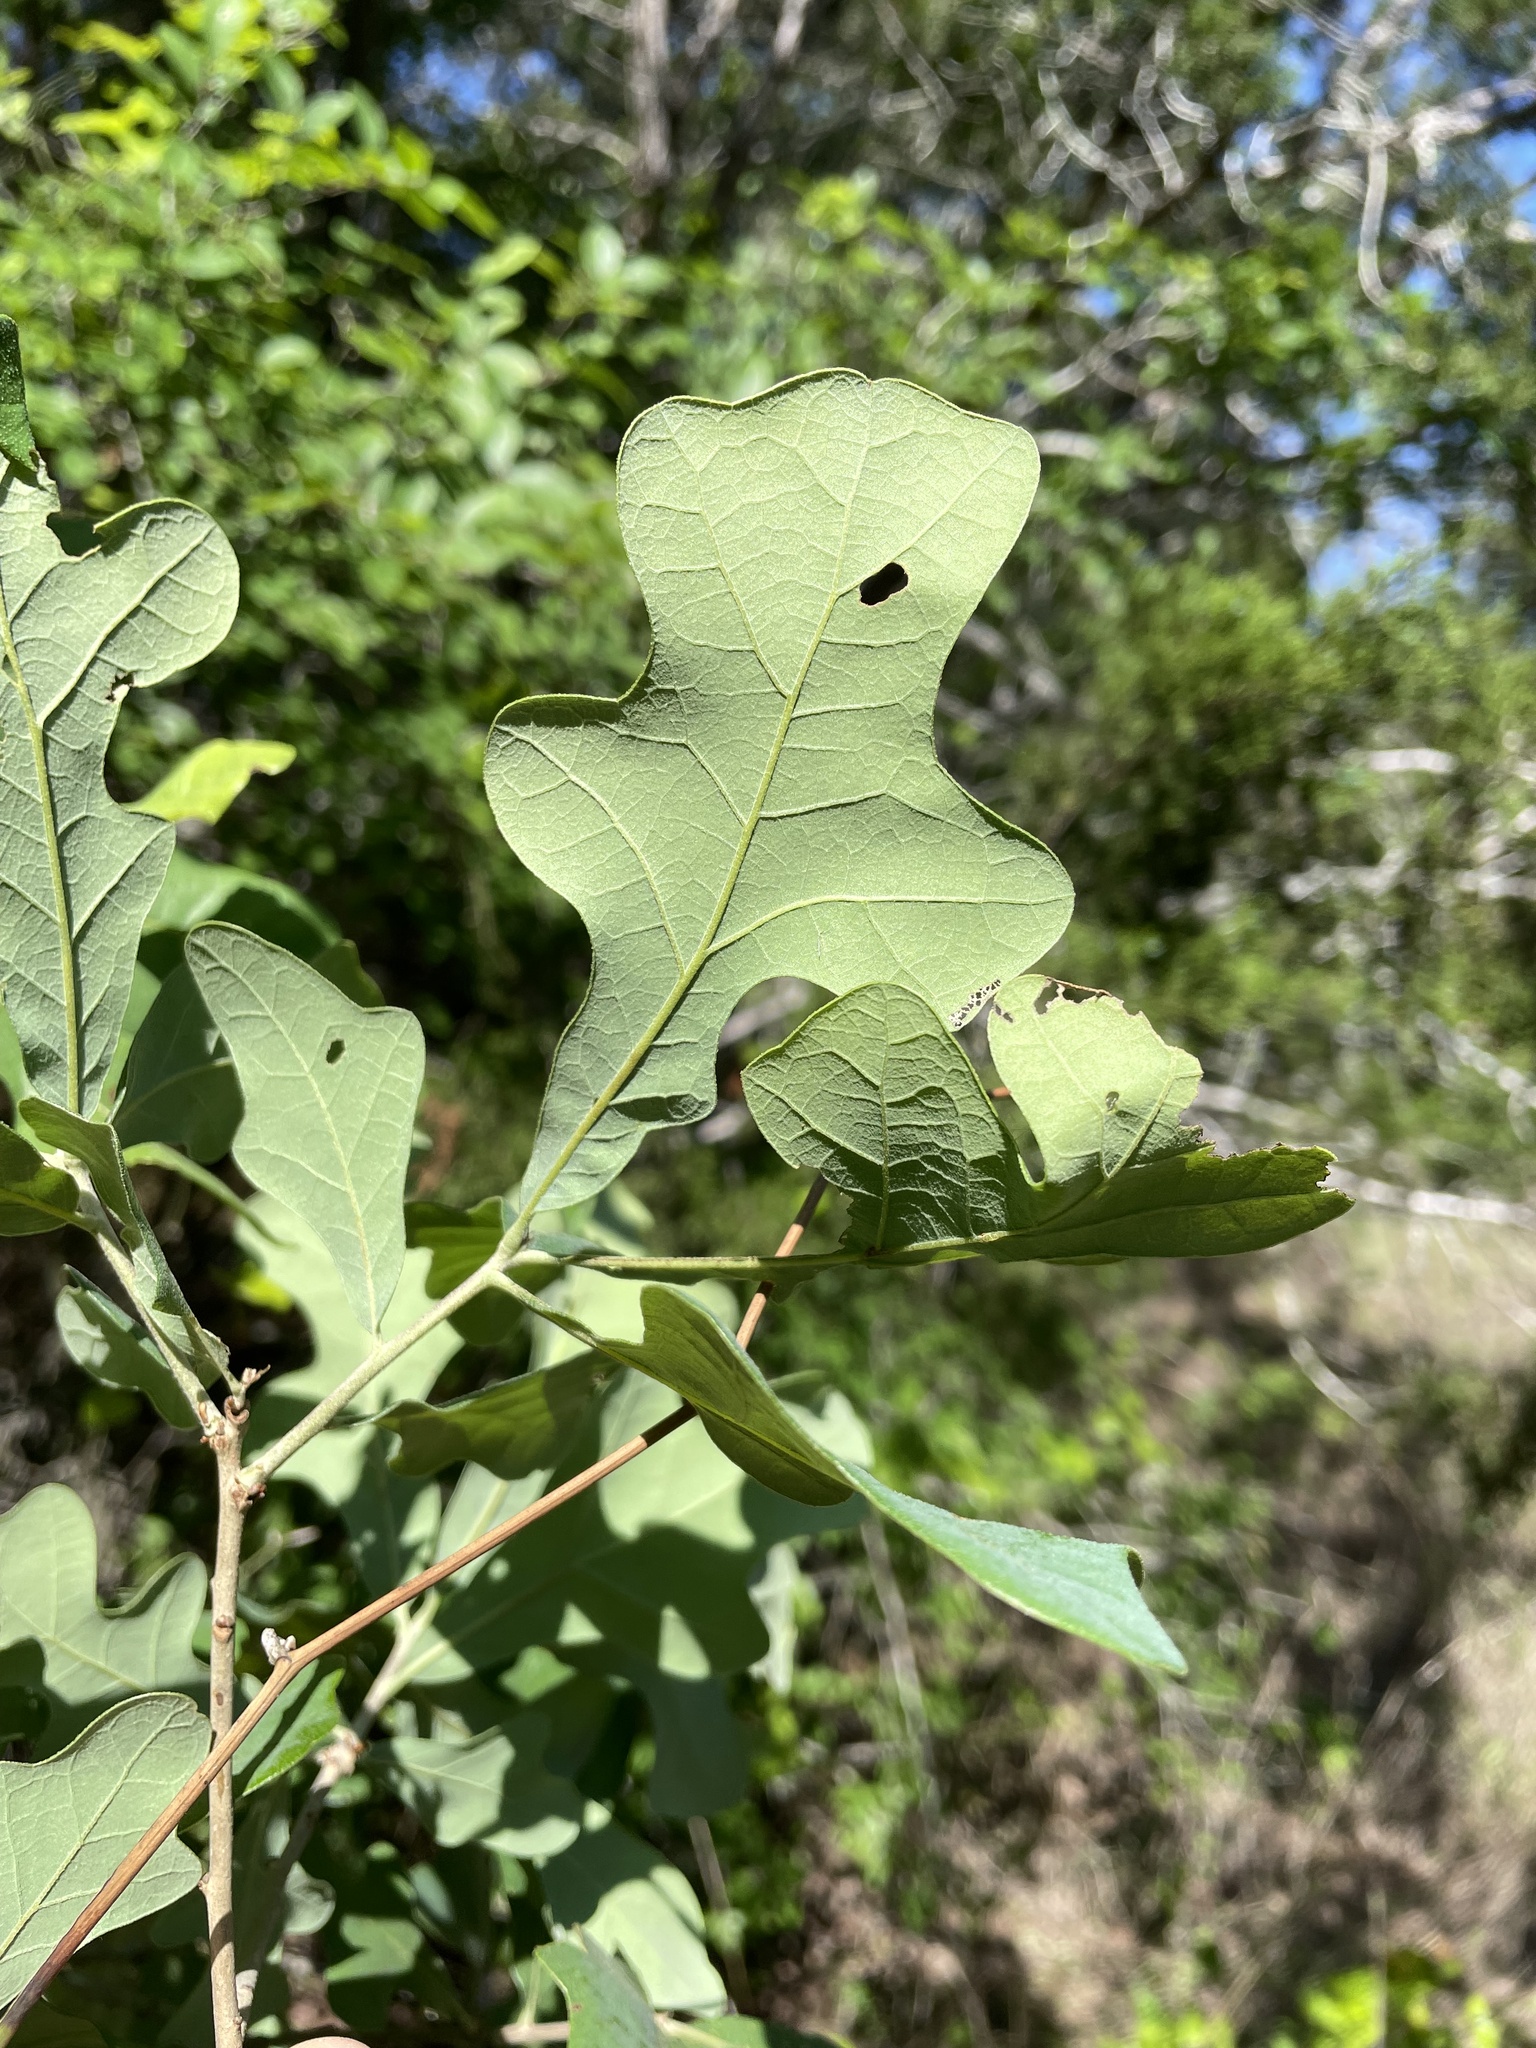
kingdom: Plantae
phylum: Tracheophyta
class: Magnoliopsida
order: Fagales
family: Fagaceae
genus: Quercus
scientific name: Quercus stellata
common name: Post oak
